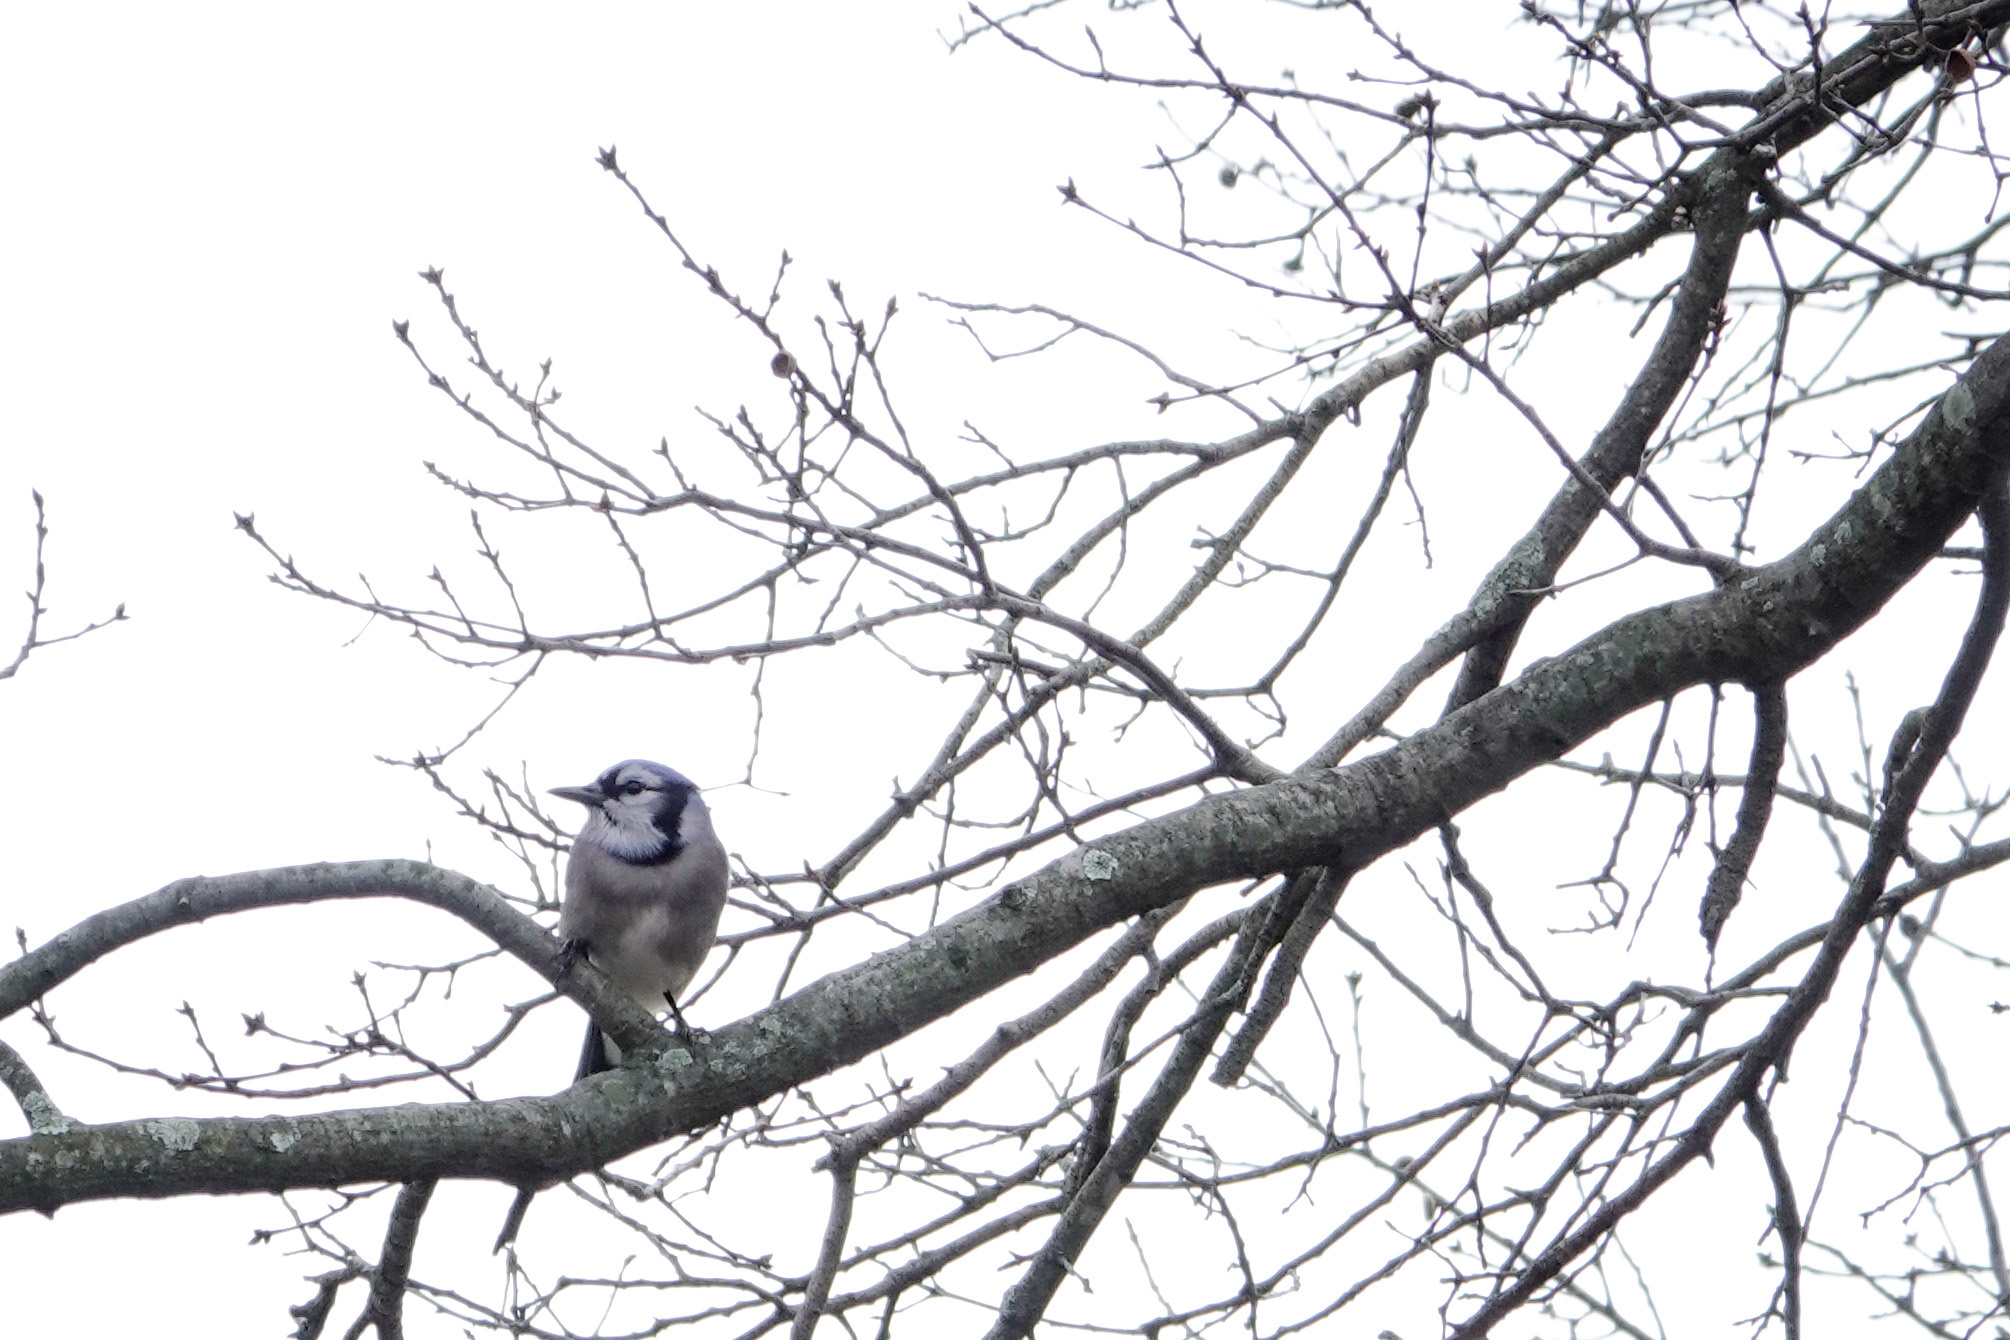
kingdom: Animalia
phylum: Chordata
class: Aves
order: Passeriformes
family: Corvidae
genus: Cyanocitta
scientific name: Cyanocitta cristata
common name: Blue jay
